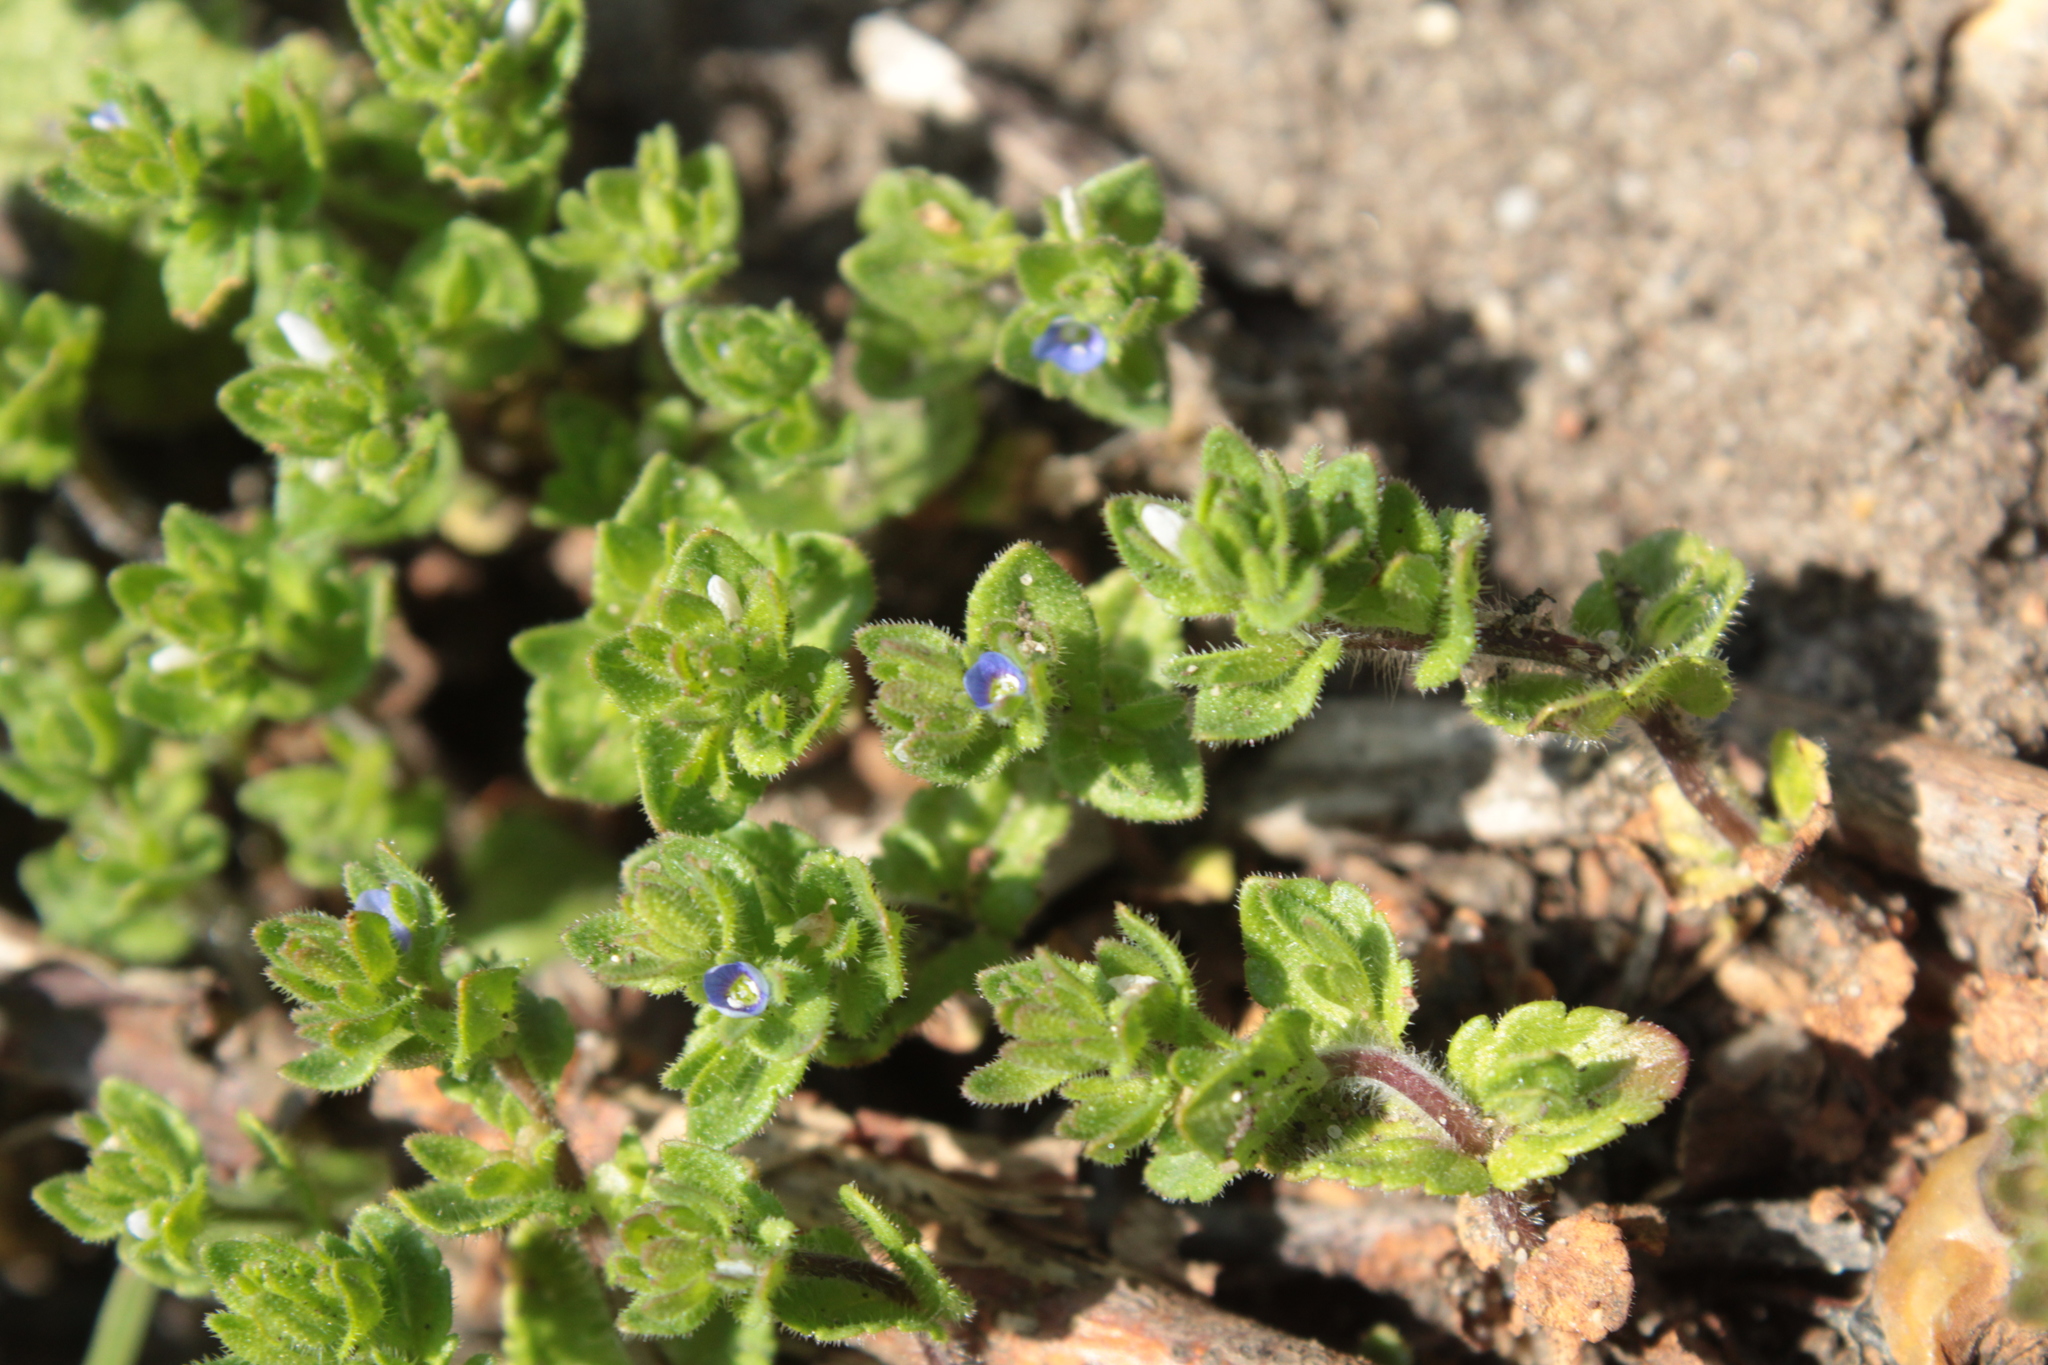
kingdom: Plantae
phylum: Tracheophyta
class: Magnoliopsida
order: Lamiales
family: Plantaginaceae
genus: Veronica
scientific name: Veronica arvensis
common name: Corn speedwell
